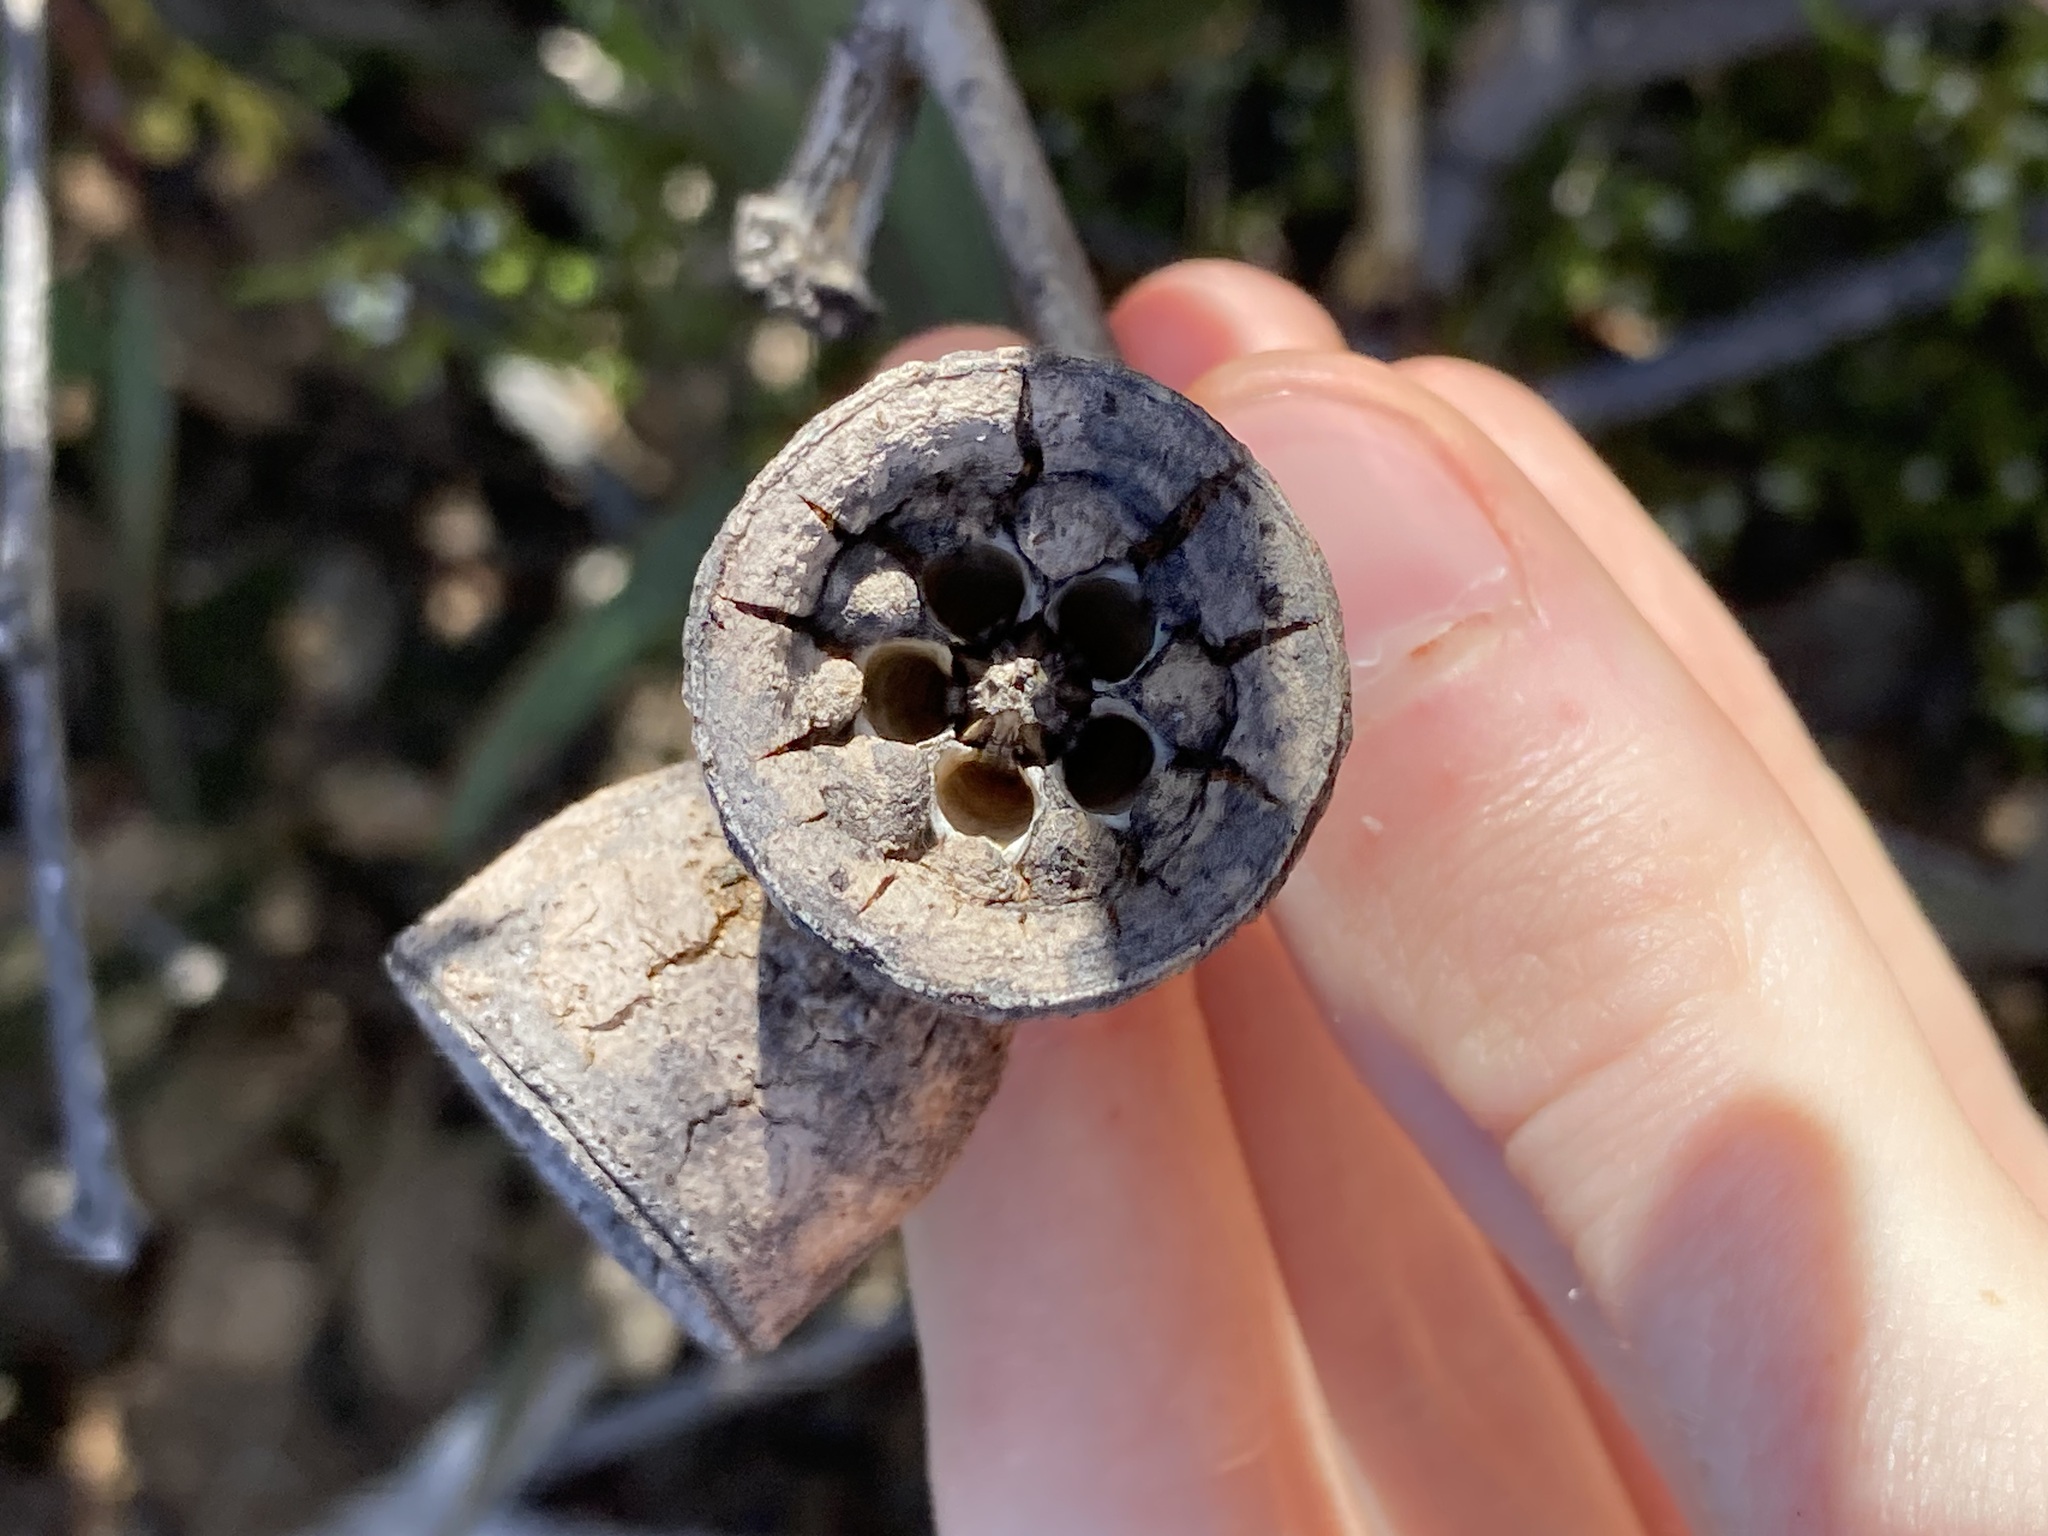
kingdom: Plantae
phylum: Tracheophyta
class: Magnoliopsida
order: Myrtales
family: Myrtaceae
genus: Eucalyptus
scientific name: Eucalyptus preissiana
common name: Stirling range mallee
